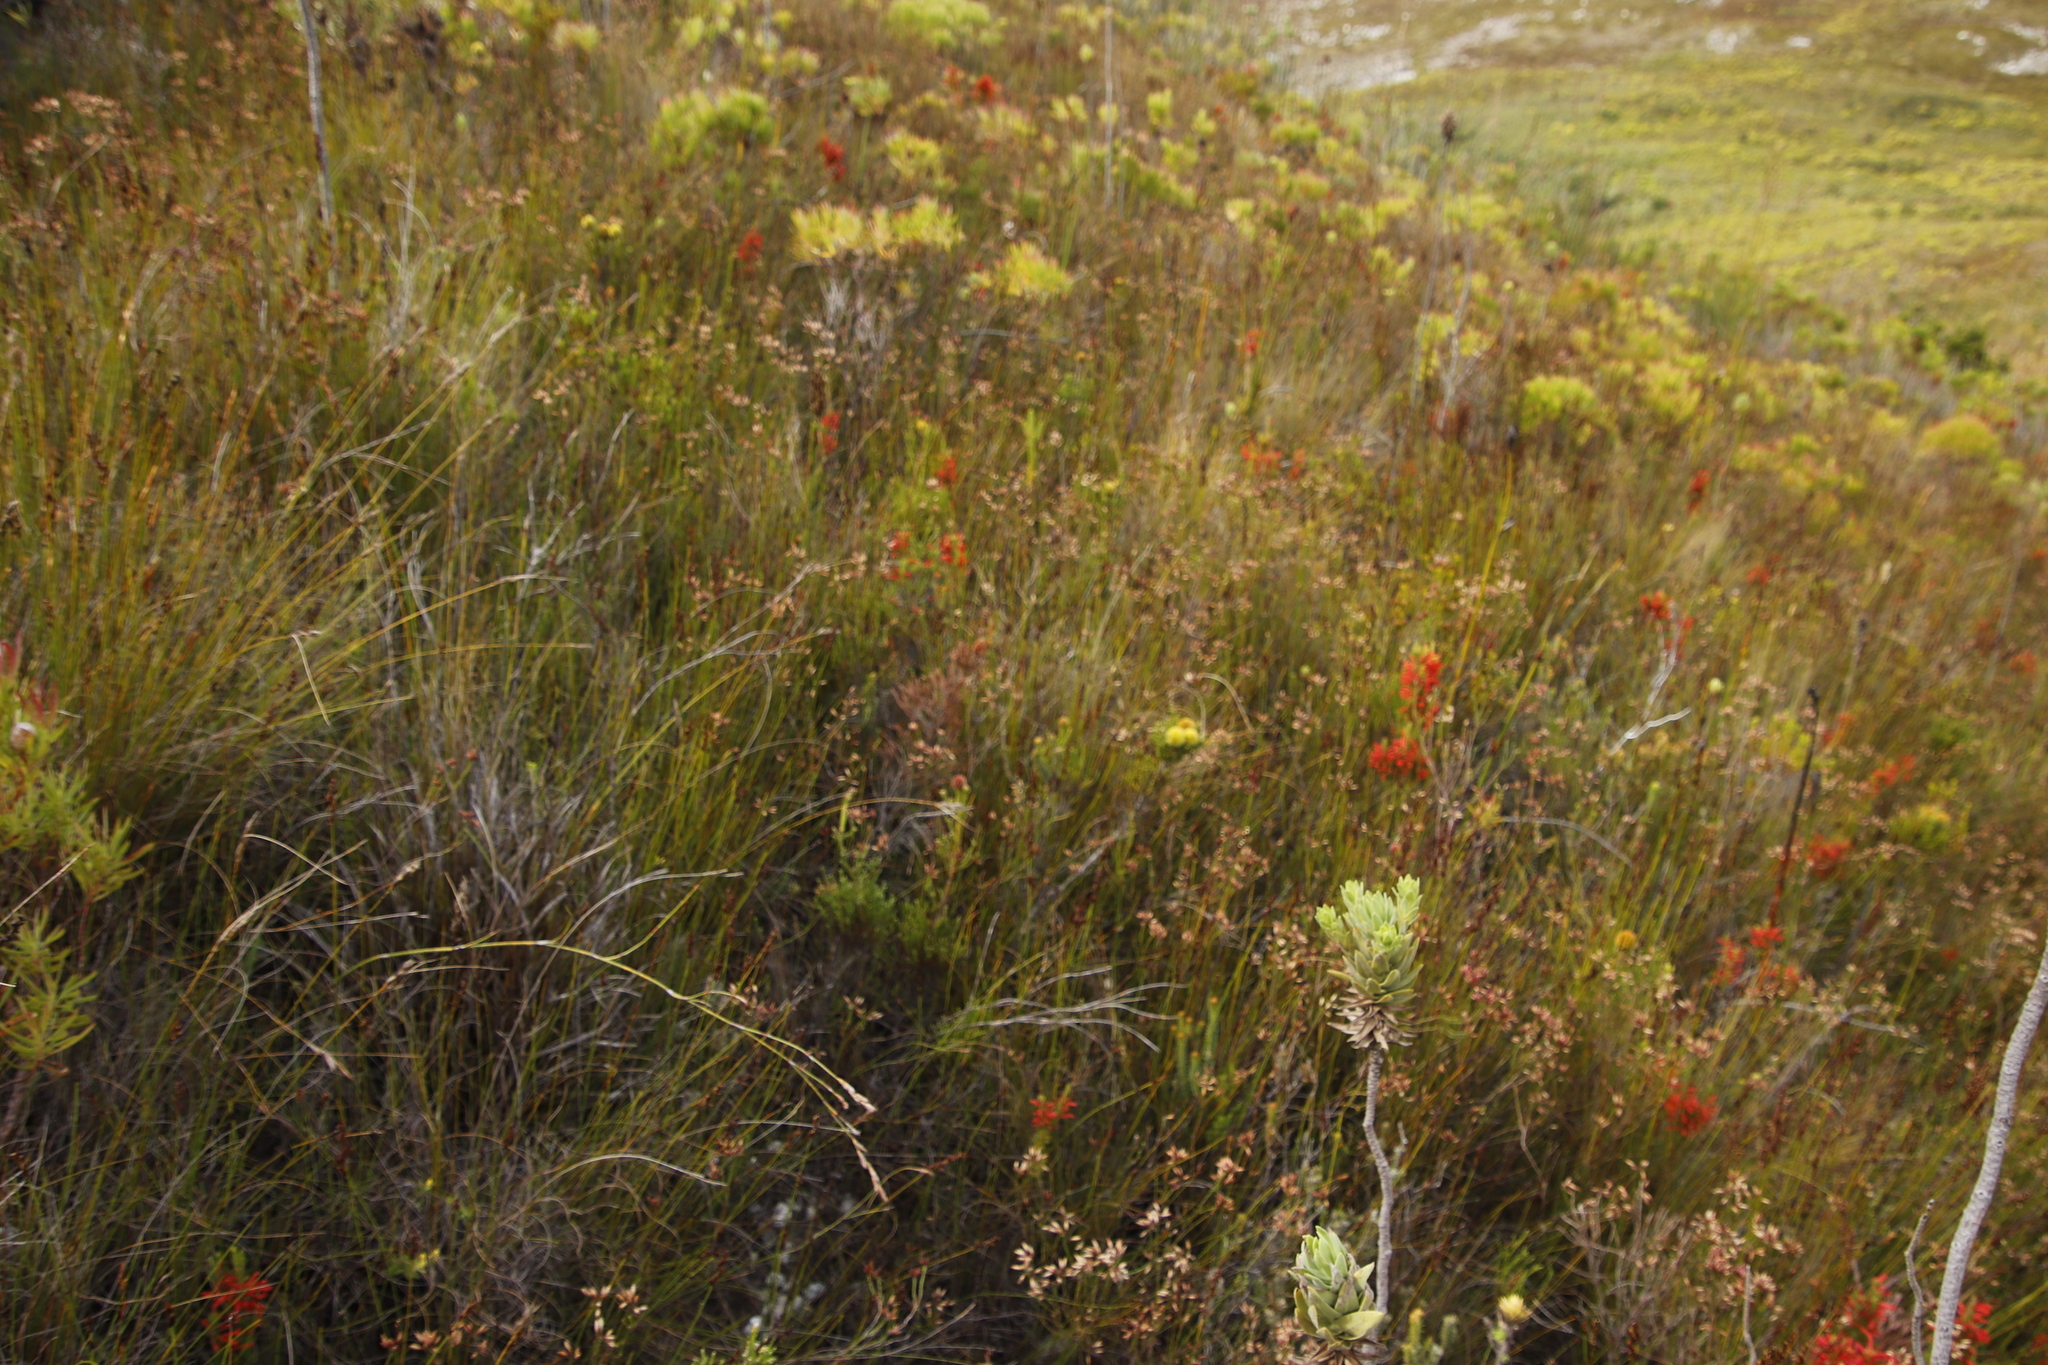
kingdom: Plantae
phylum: Tracheophyta
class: Magnoliopsida
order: Ericales
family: Ericaceae
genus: Erica
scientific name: Erica pillansii
